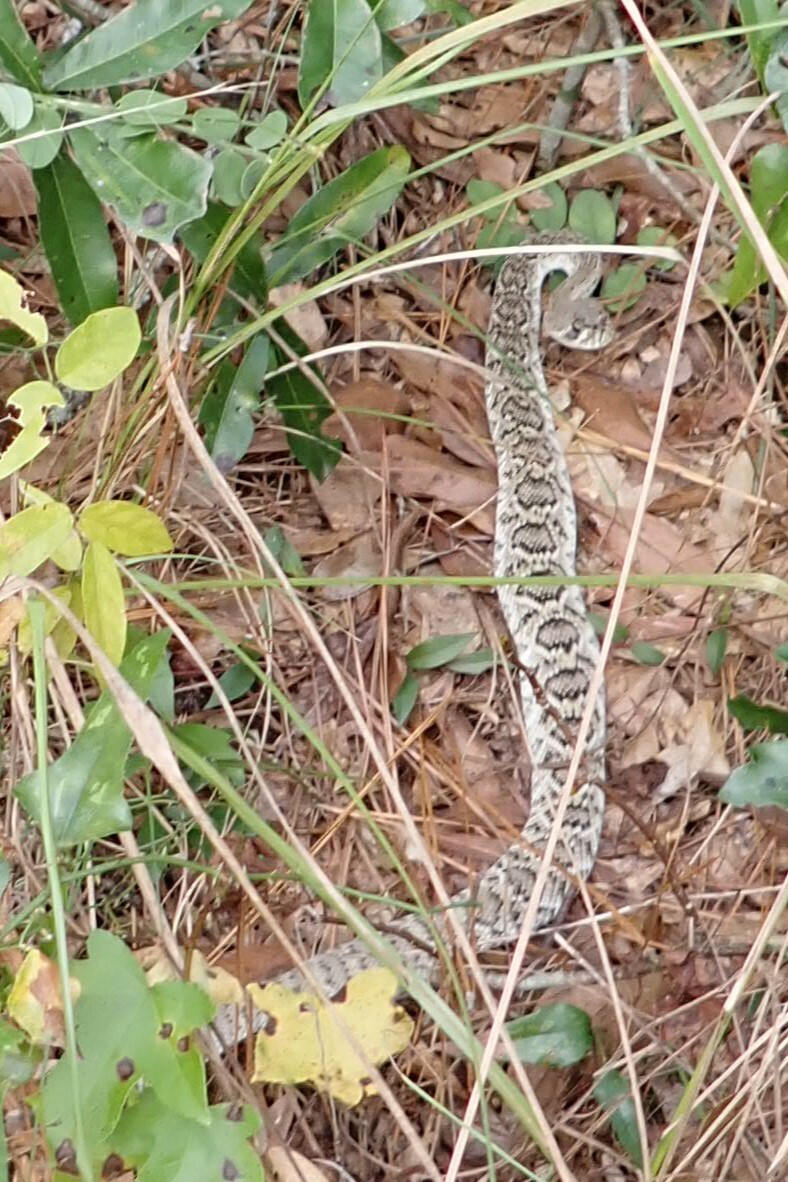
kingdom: Animalia
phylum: Chordata
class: Squamata
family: Viperidae
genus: Crotalus
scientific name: Crotalus adamanteus
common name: Eastern diamondback rattlesnake
